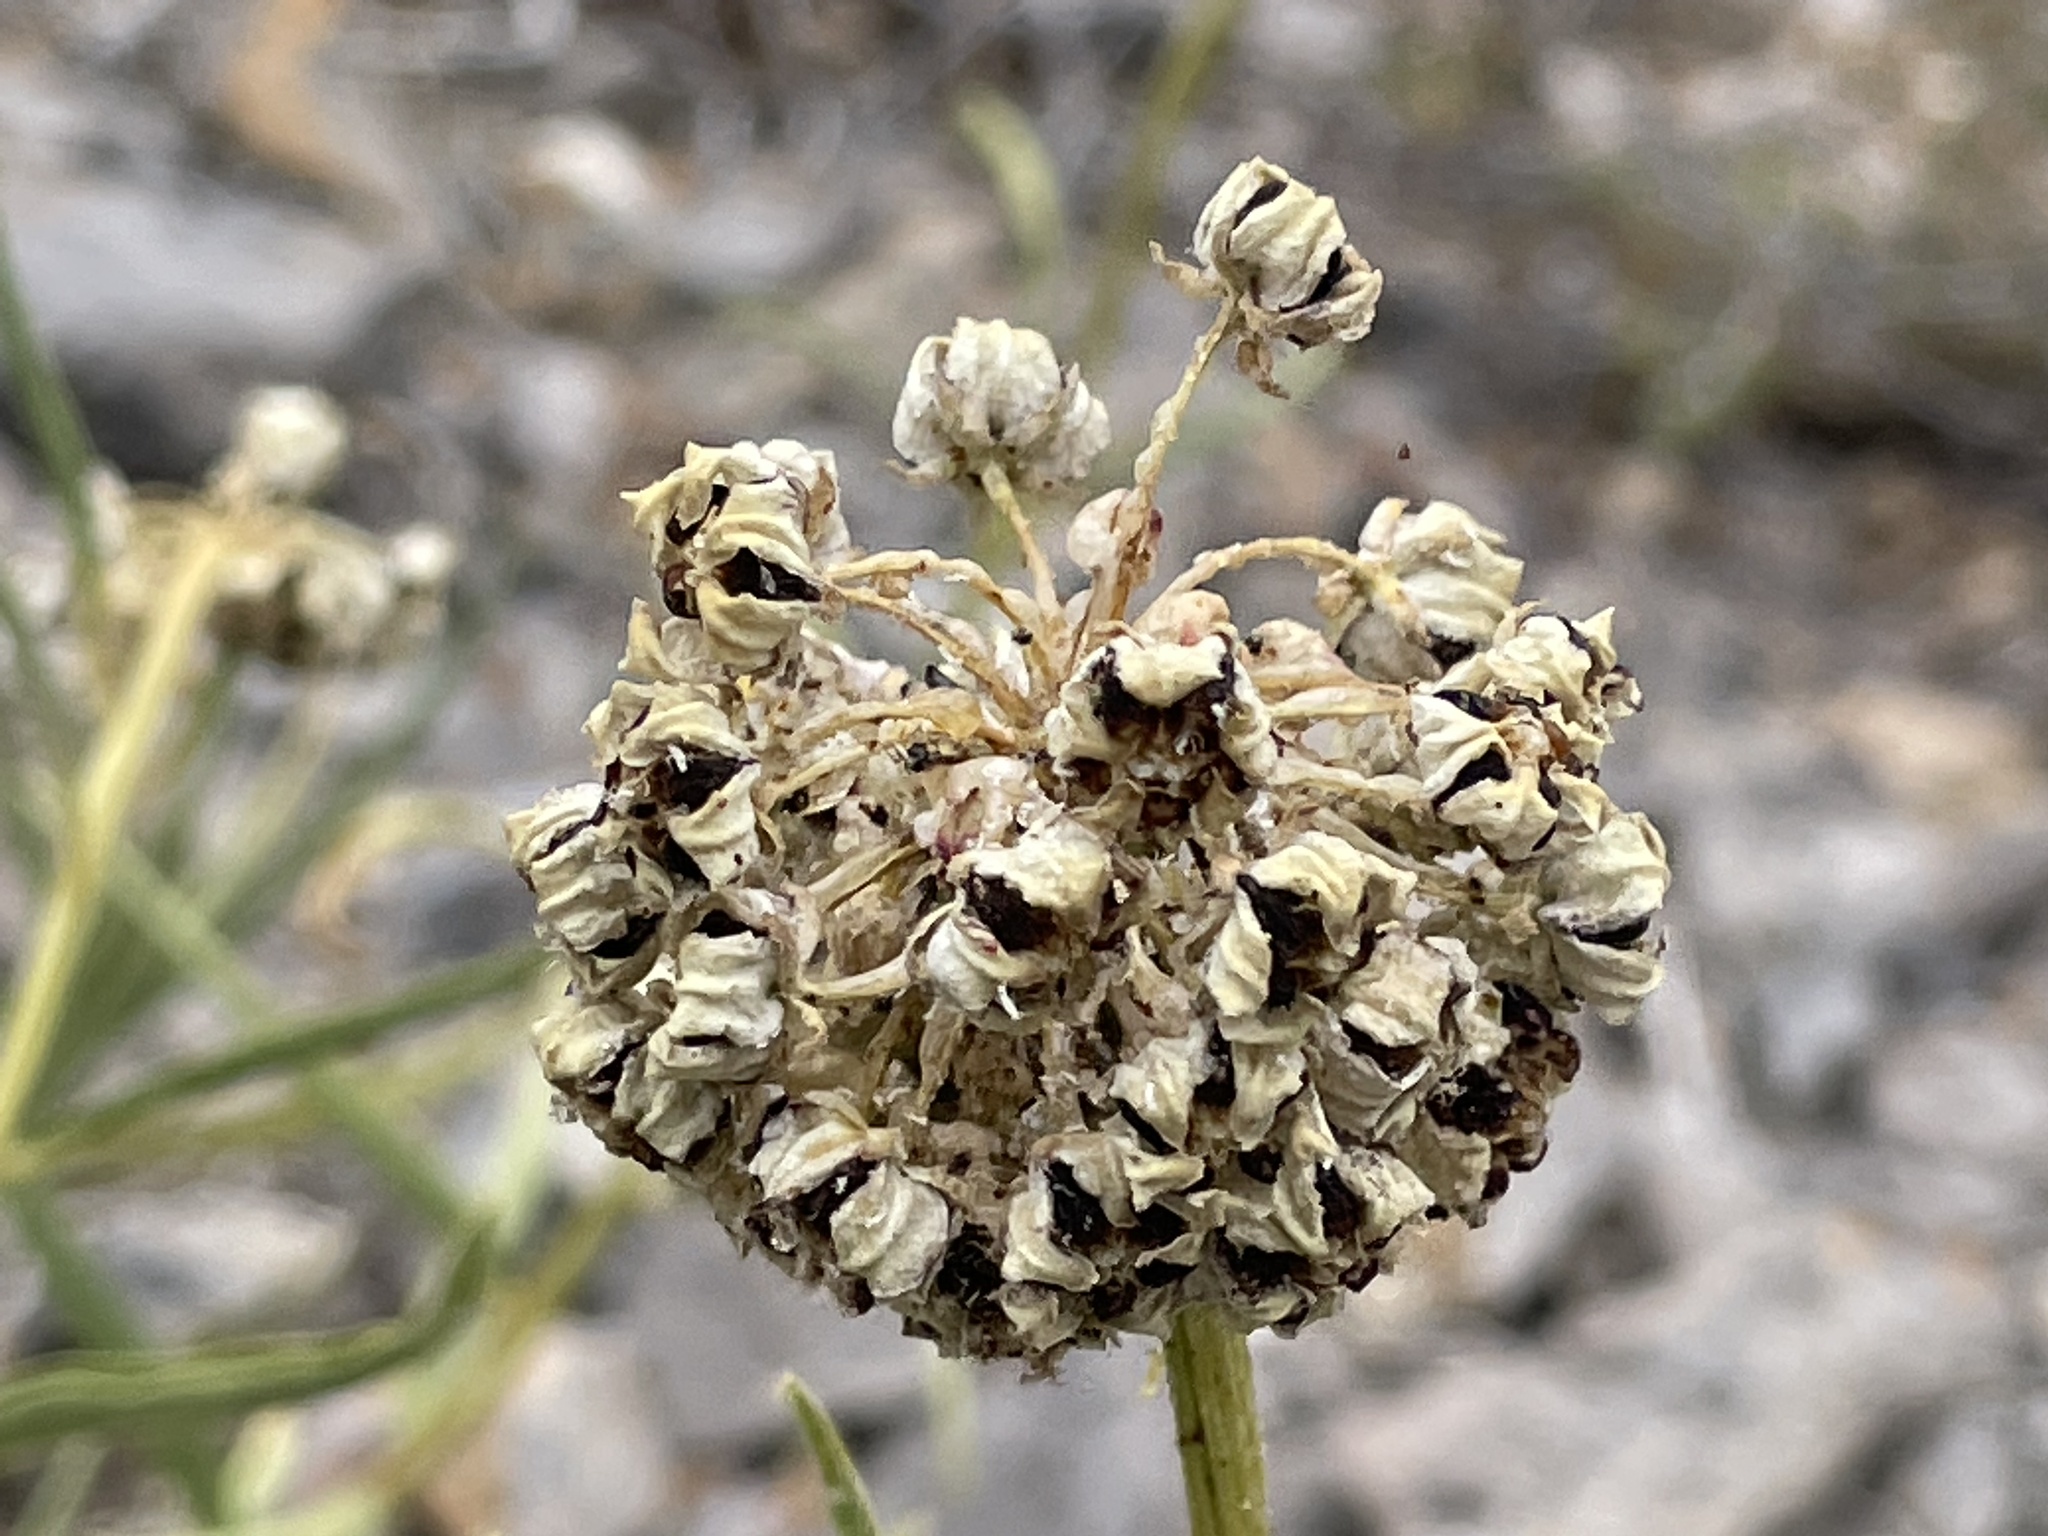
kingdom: Plantae
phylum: Tracheophyta
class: Magnoliopsida
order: Gentianales
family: Apocynaceae
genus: Asclepias
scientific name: Asclepias asperula
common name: Antelope horns
